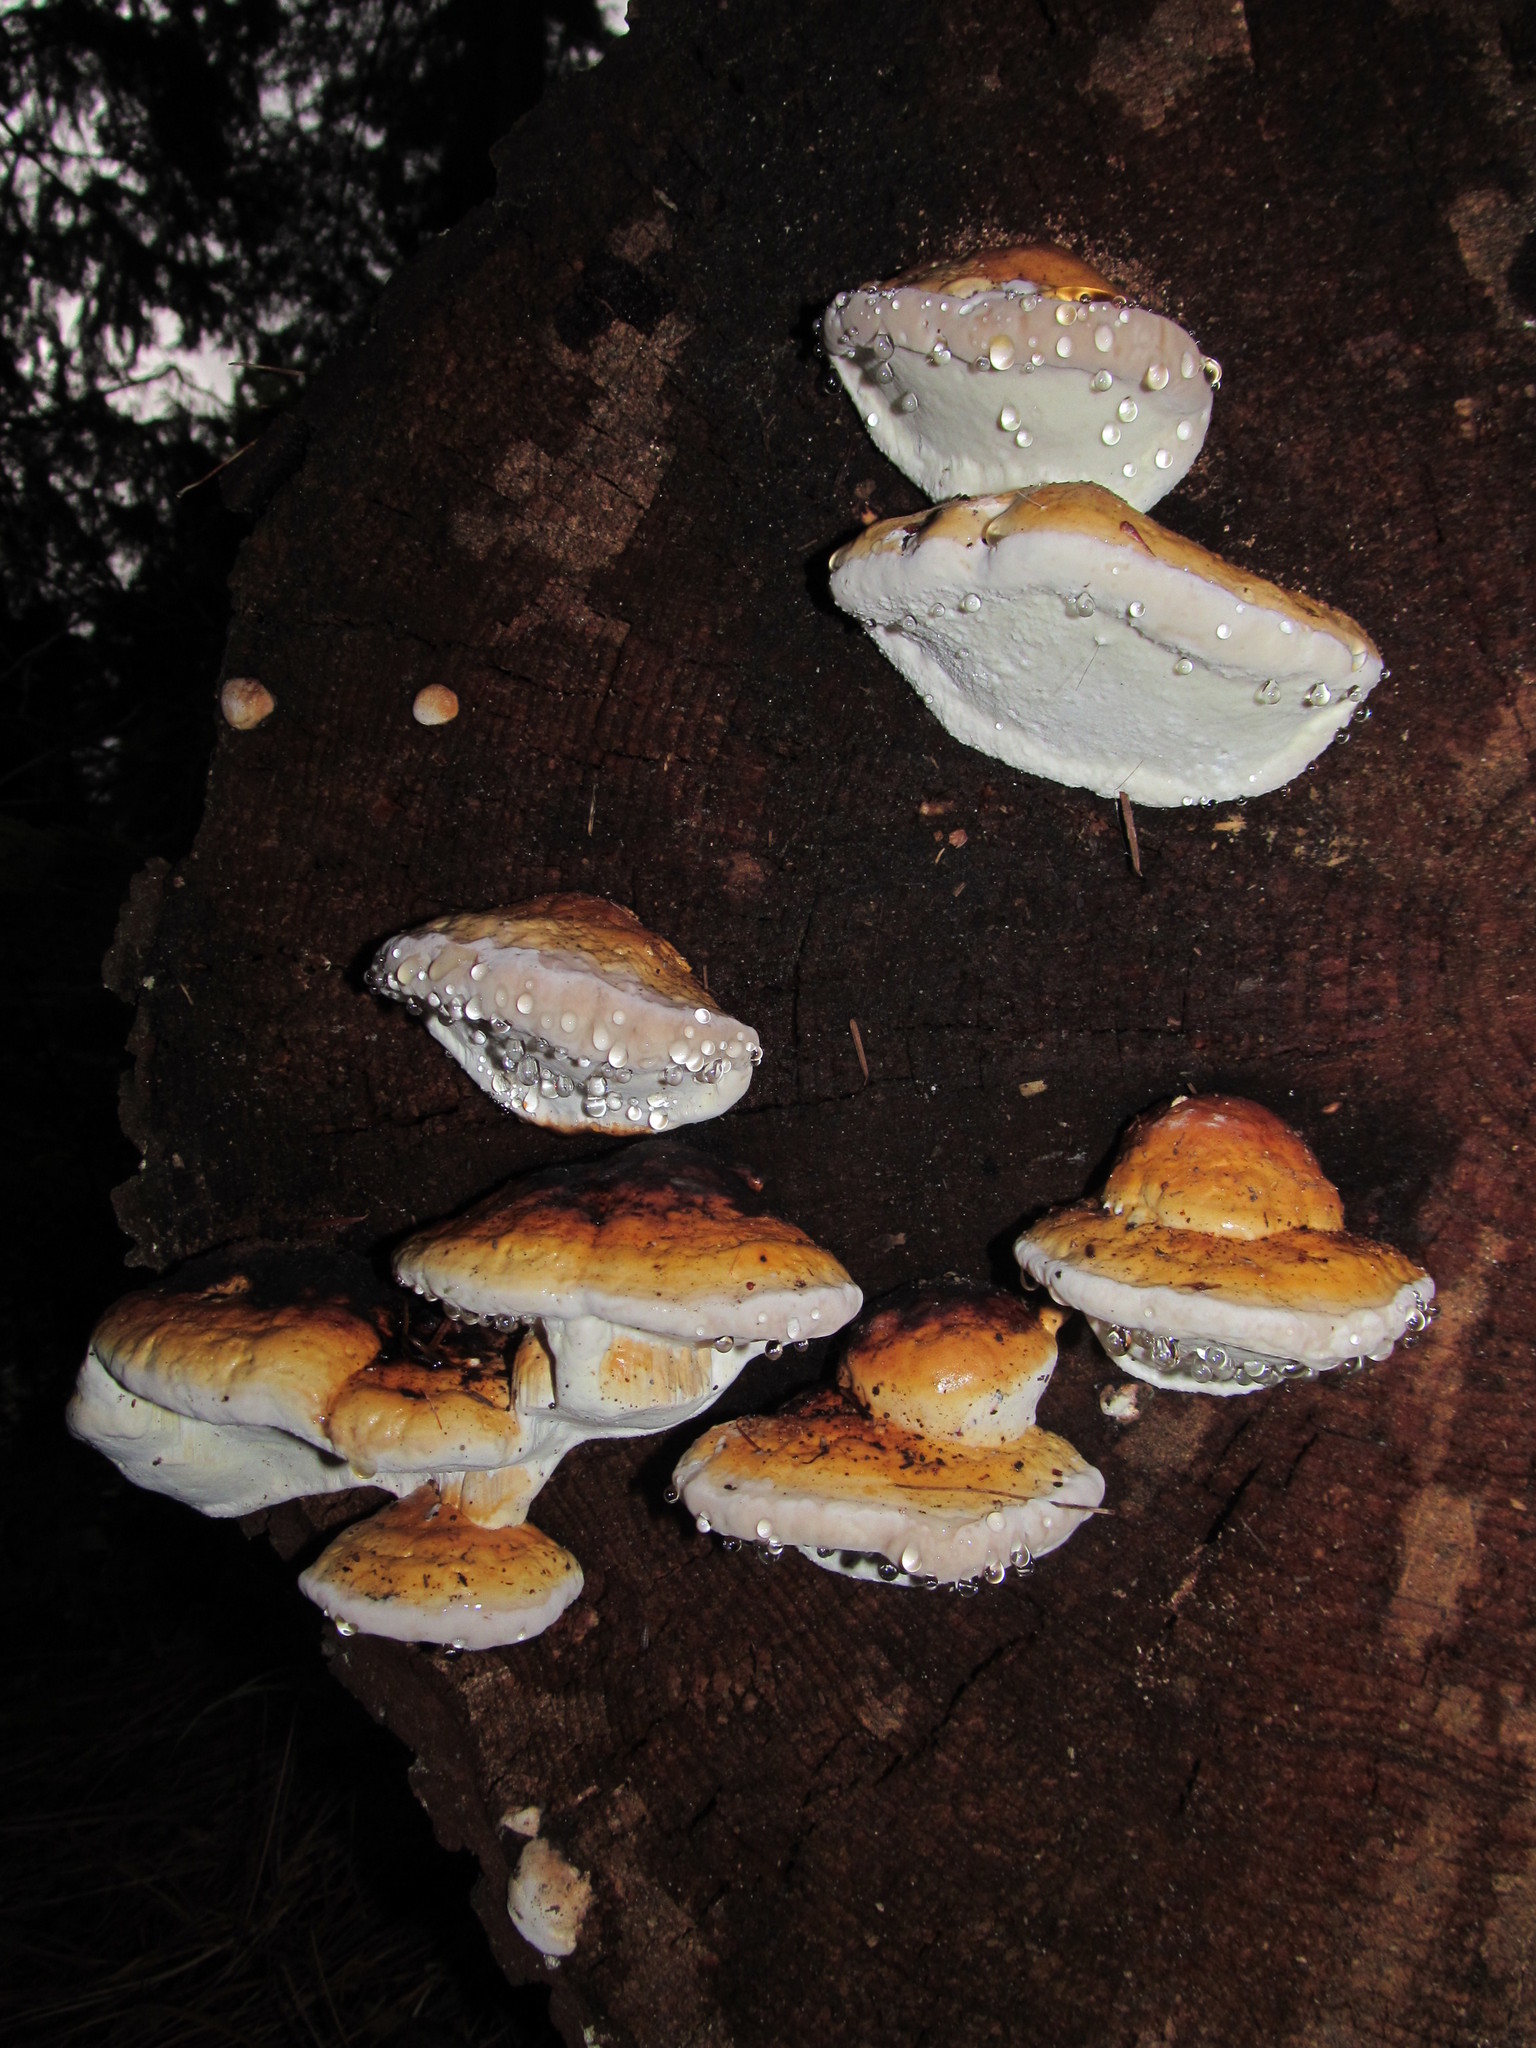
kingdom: Fungi
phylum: Basidiomycota
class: Agaricomycetes
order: Polyporales
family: Fomitopsidaceae
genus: Fomitopsis
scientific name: Fomitopsis mounceae
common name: Northern red belt
